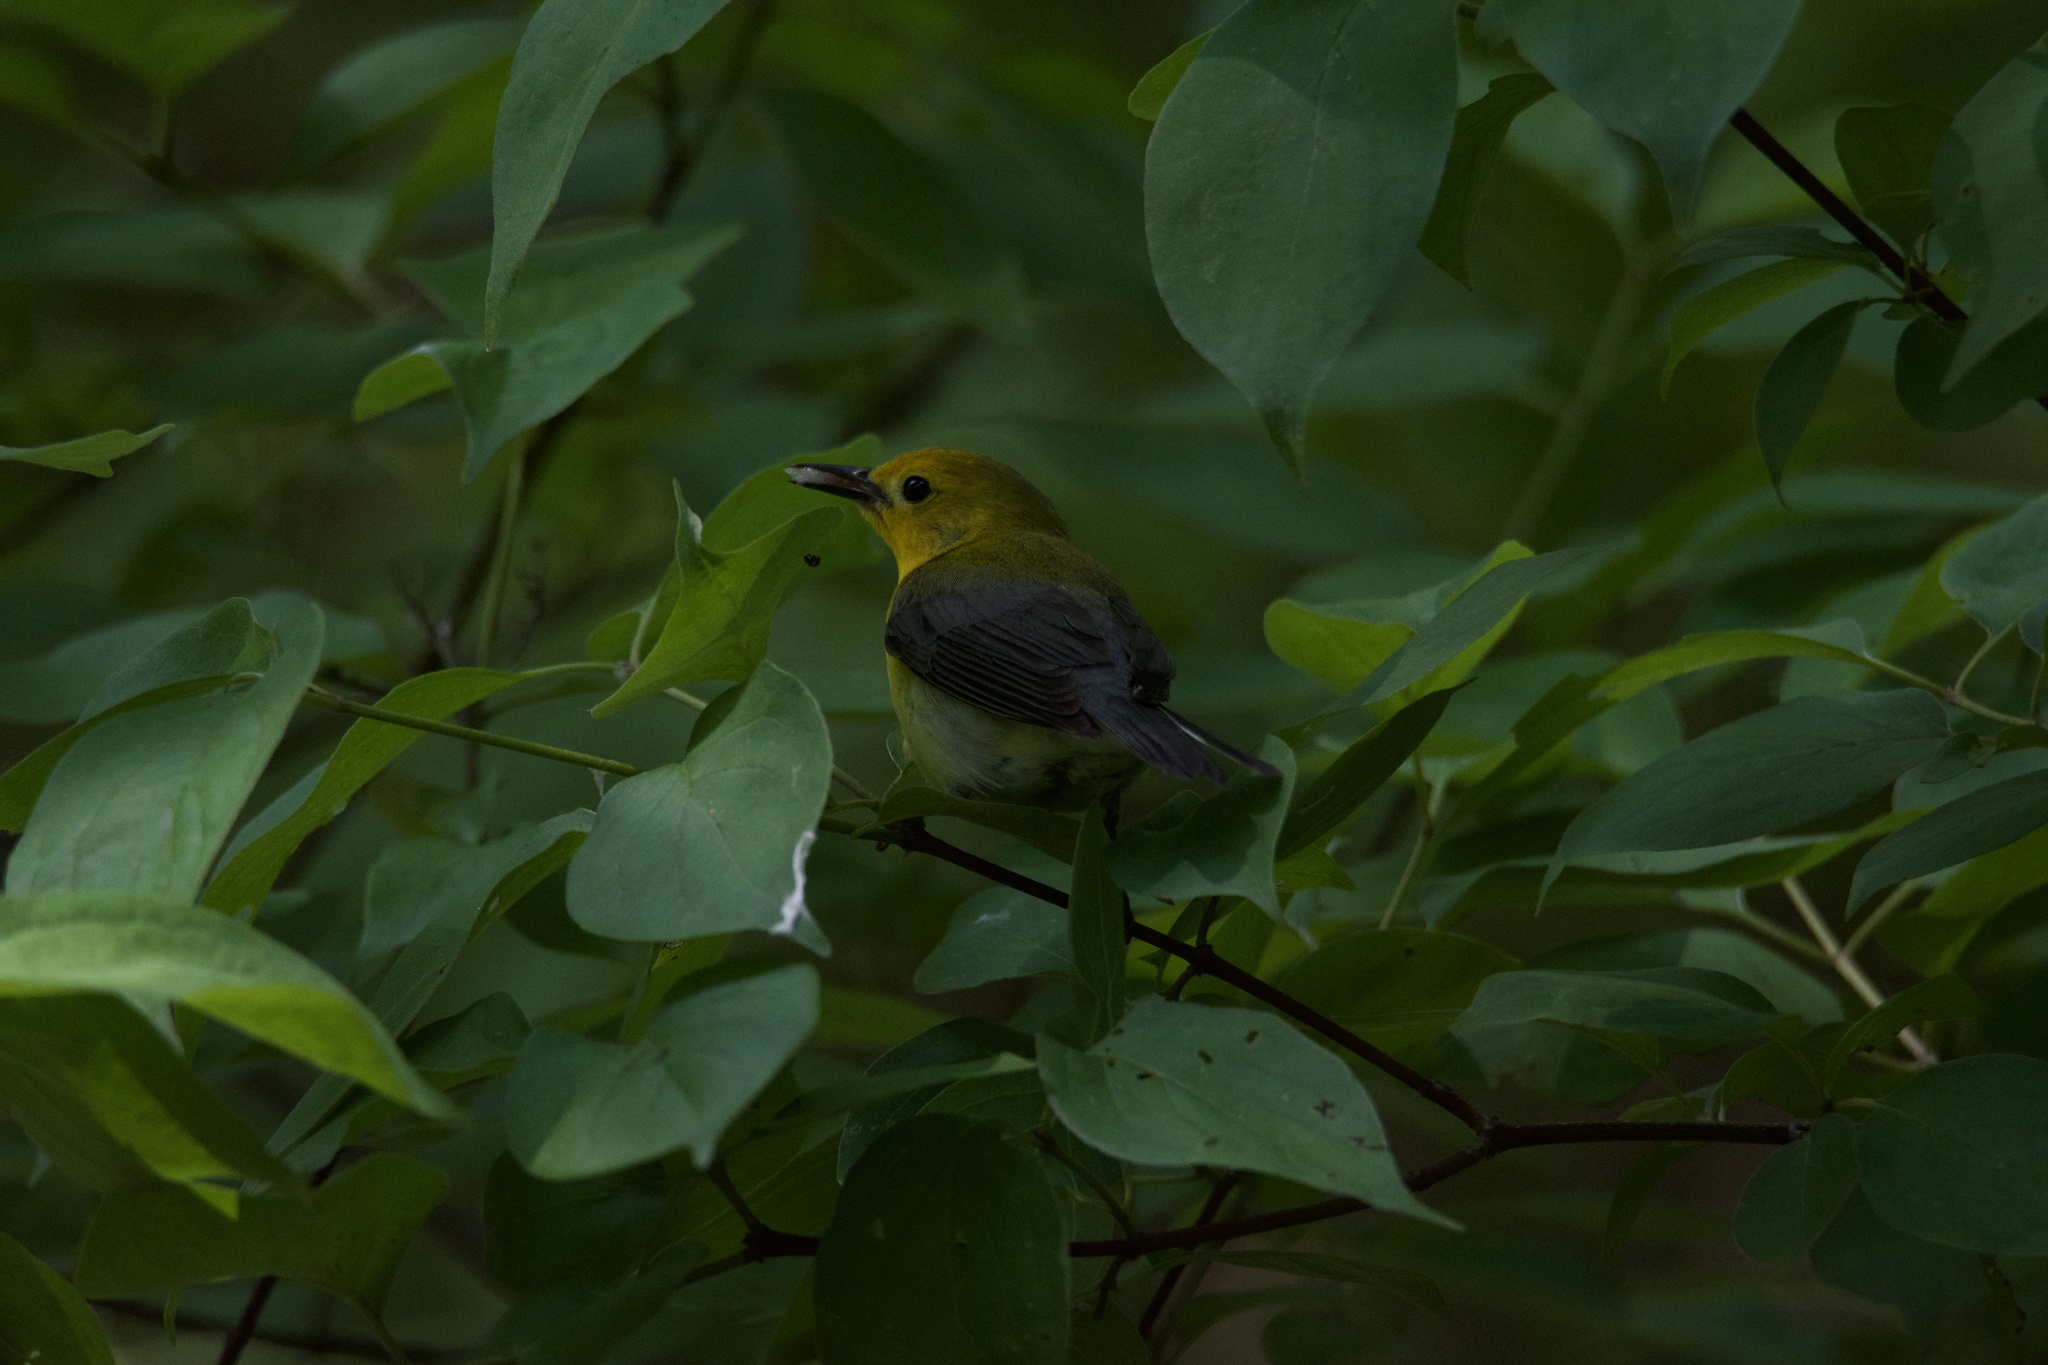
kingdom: Animalia
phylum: Chordata
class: Aves
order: Passeriformes
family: Parulidae
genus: Protonotaria
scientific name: Protonotaria citrea
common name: Prothonotary warbler
